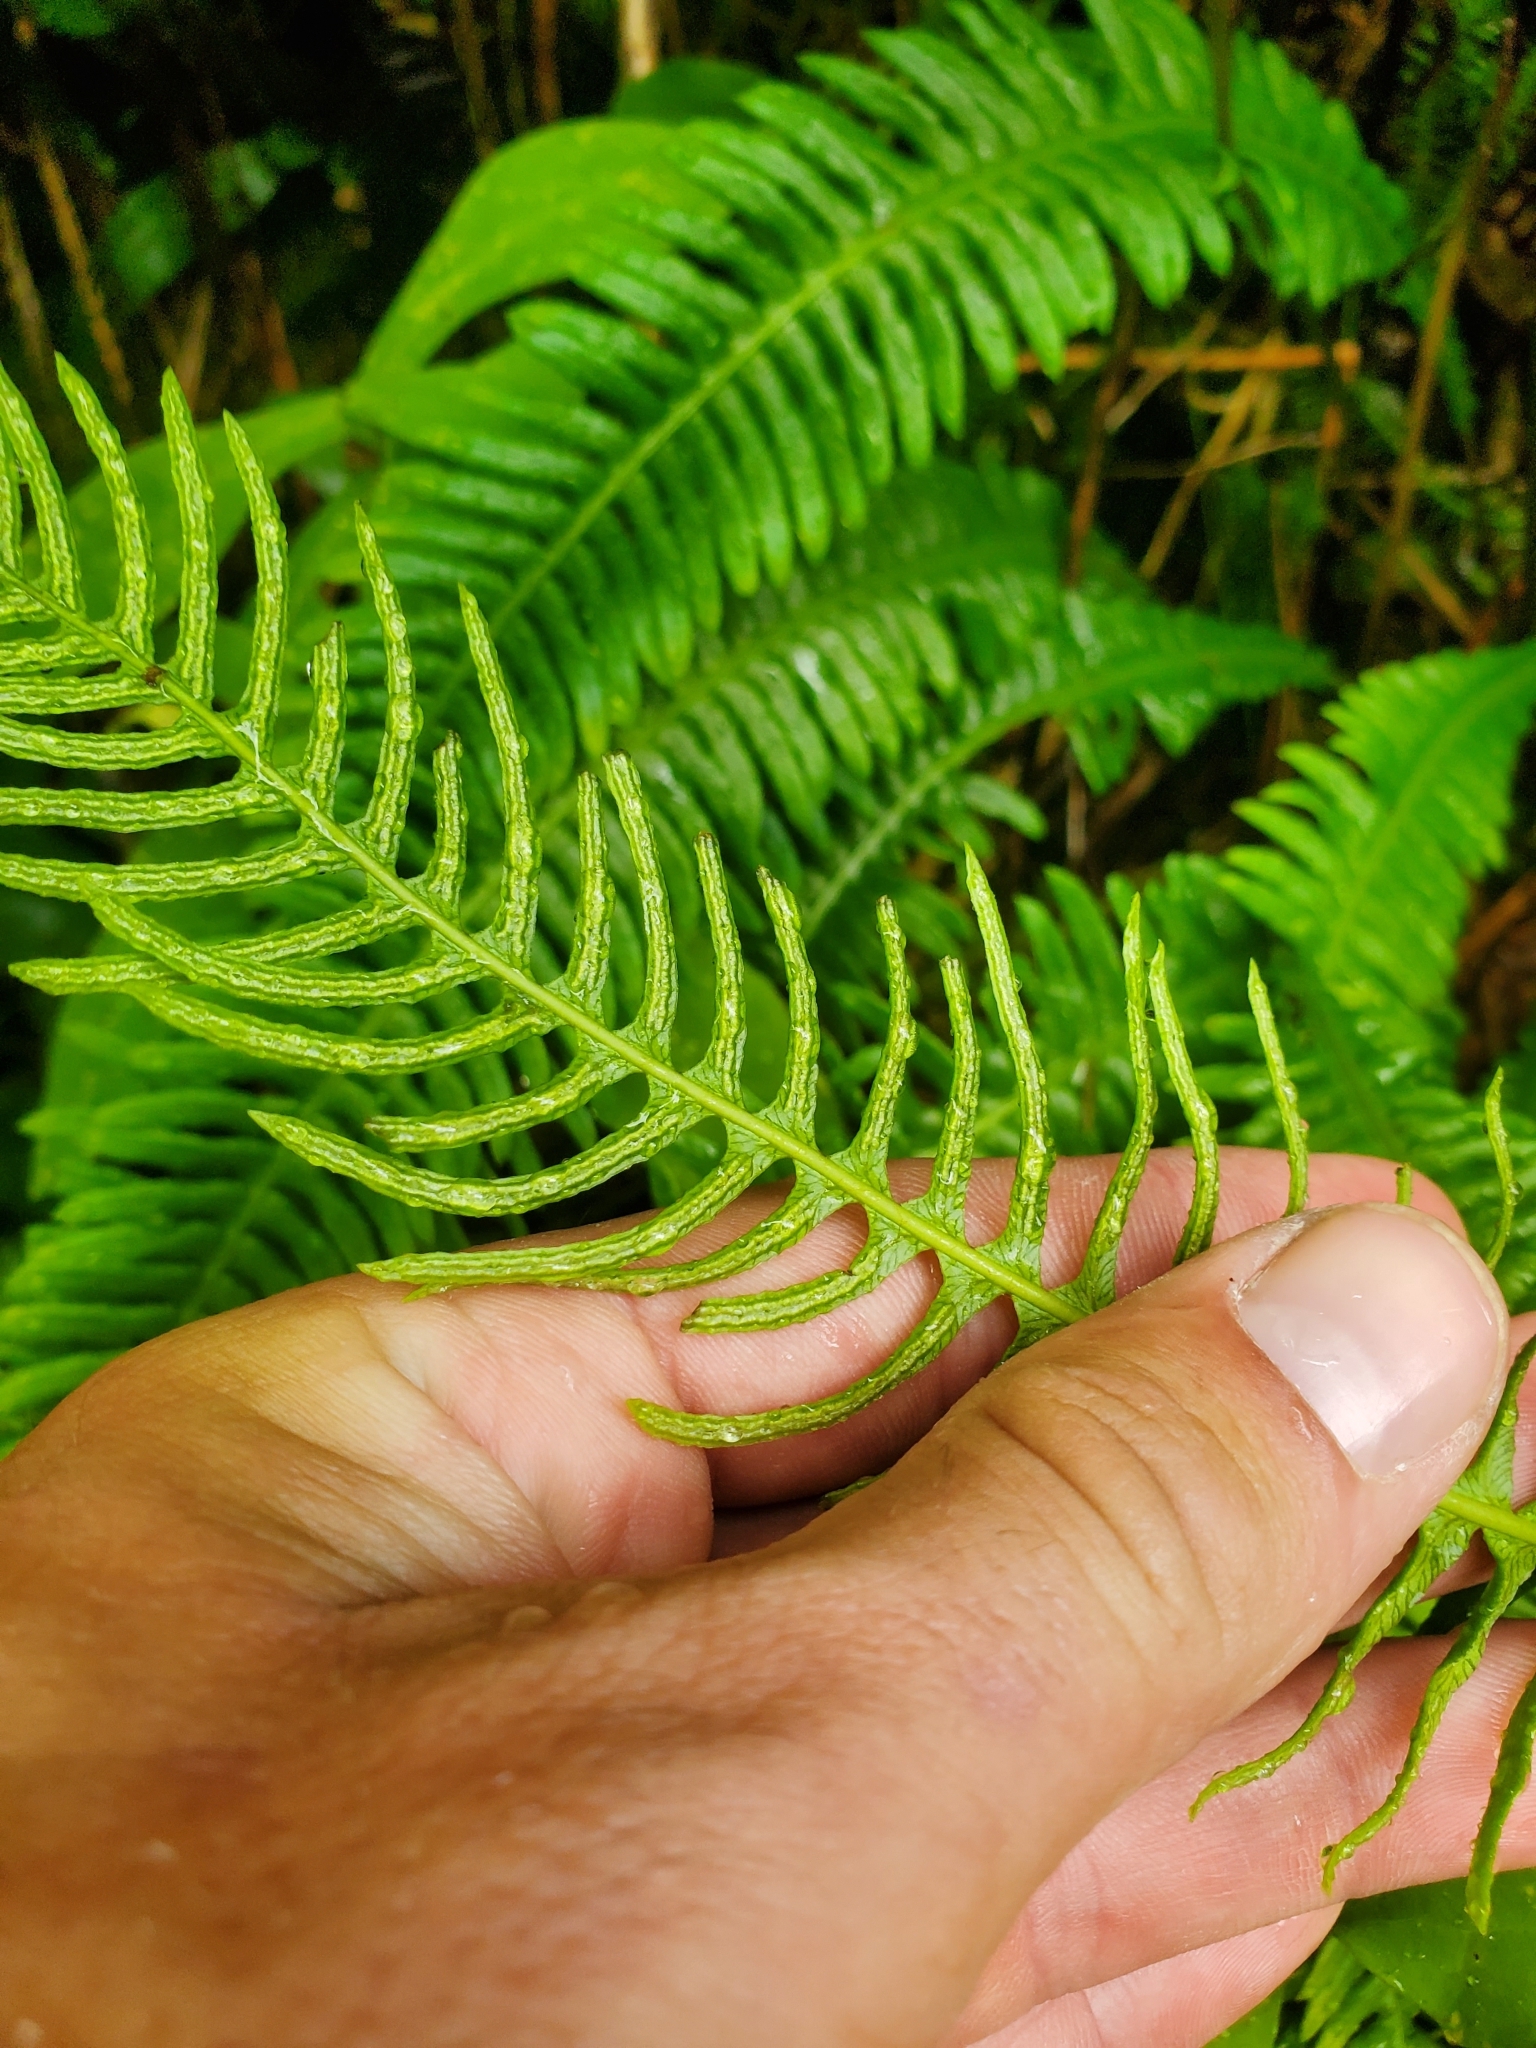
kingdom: Plantae
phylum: Tracheophyta
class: Polypodiopsida
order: Polypodiales
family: Blechnaceae
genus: Struthiopteris
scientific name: Struthiopteris spicant
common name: Deer fern
